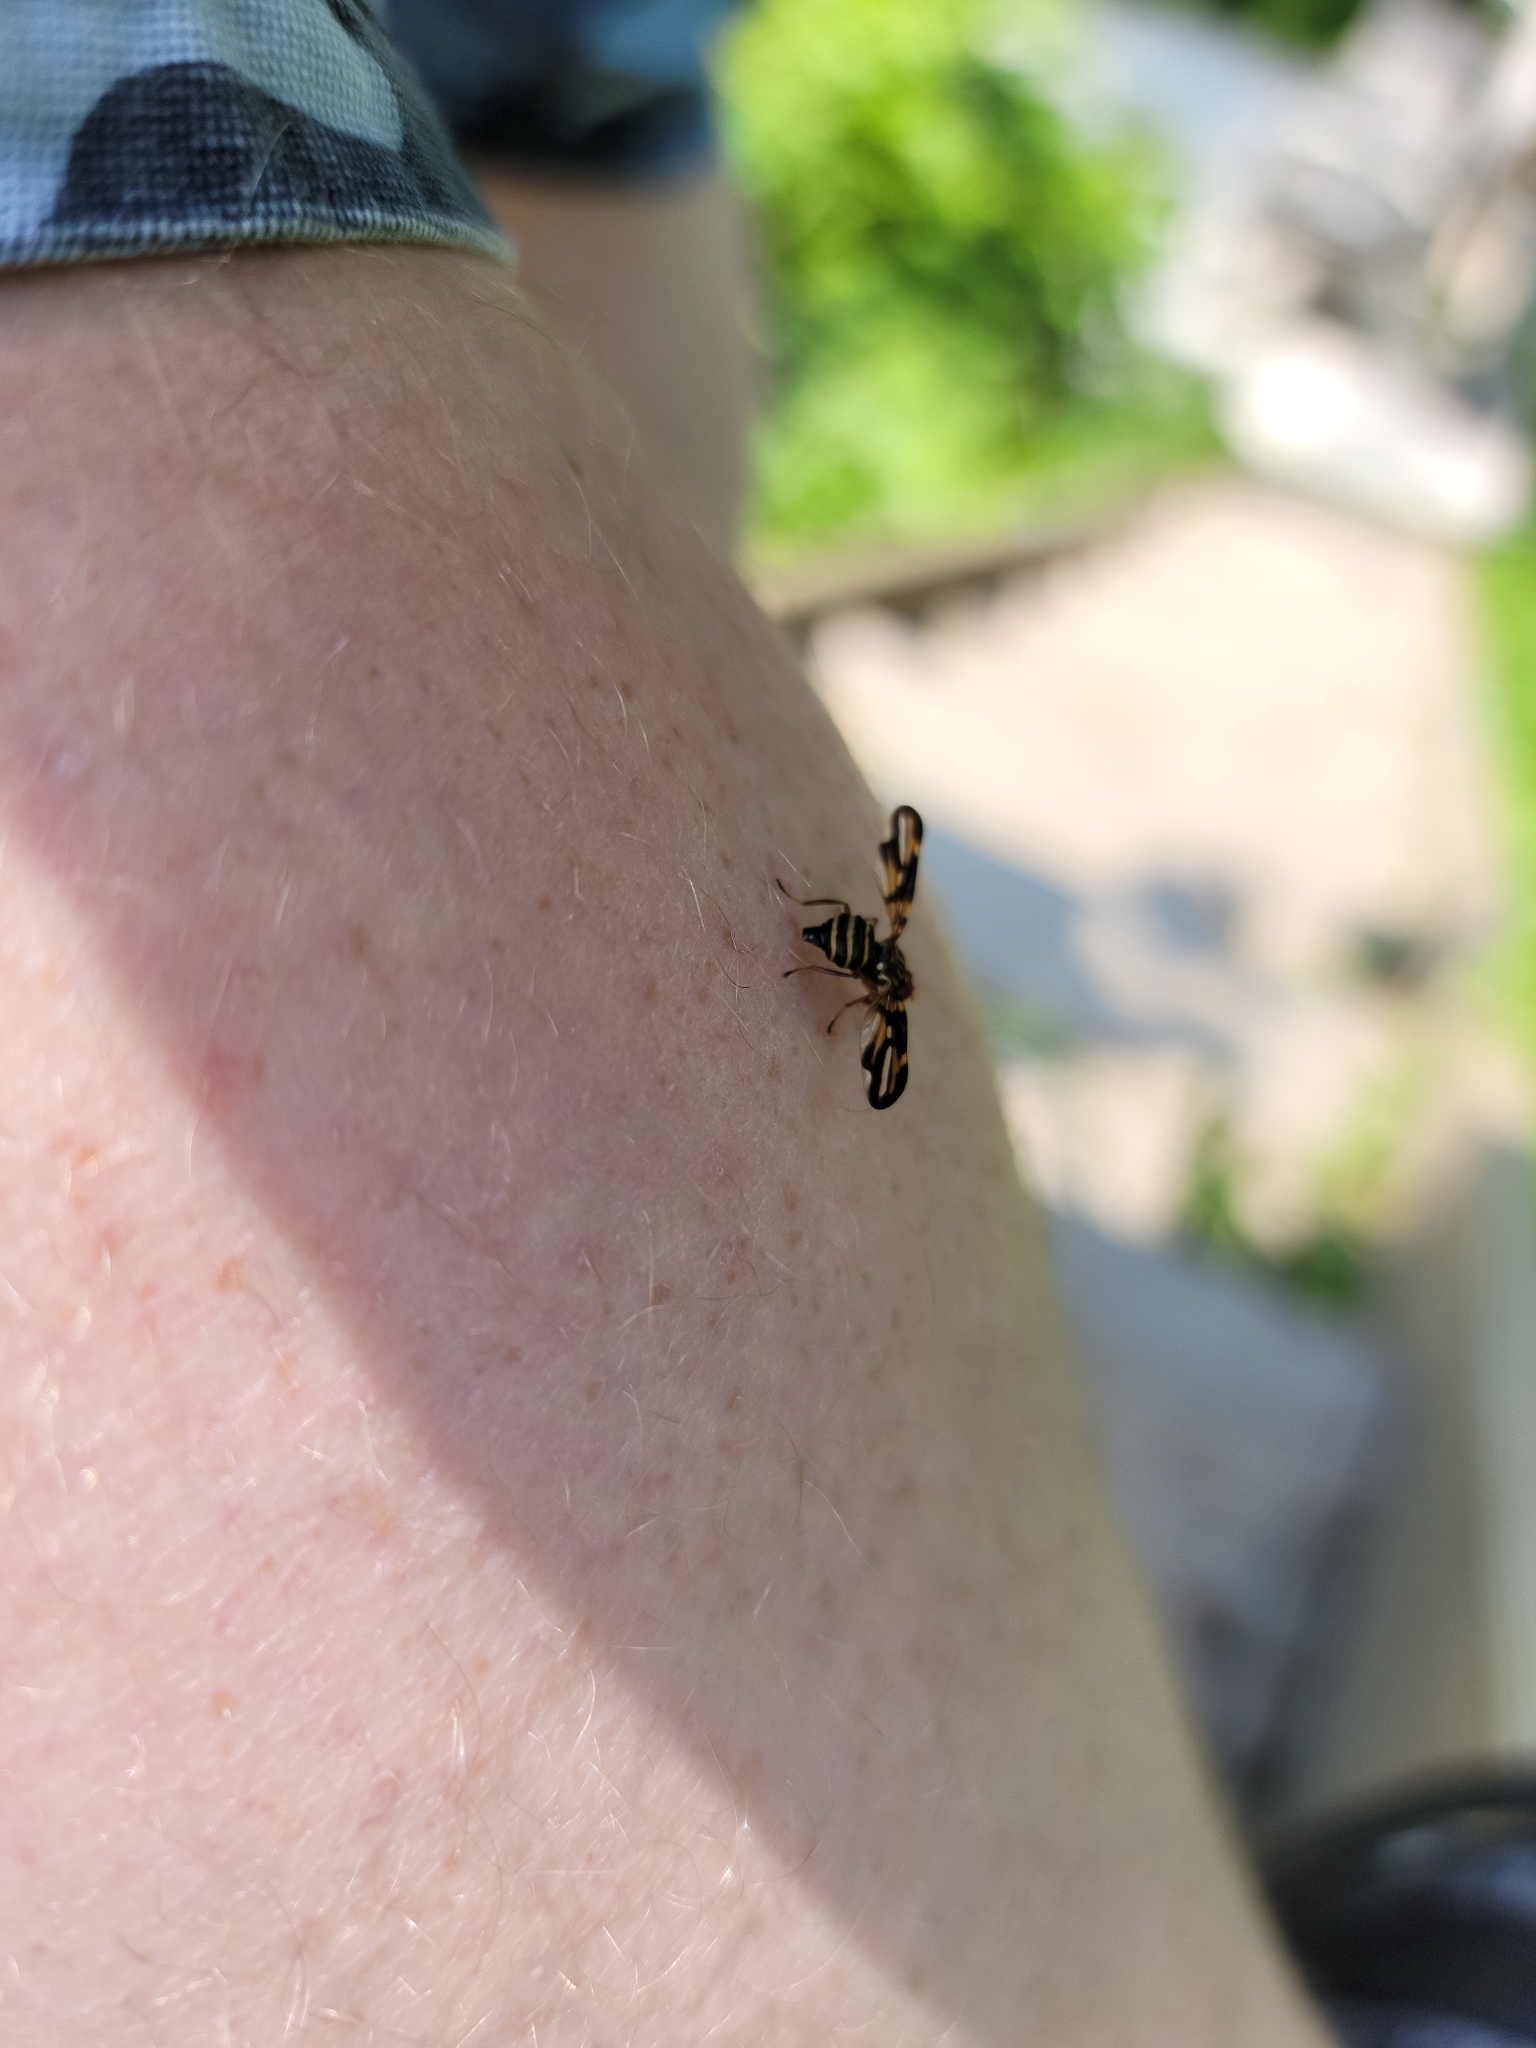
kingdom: Animalia
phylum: Arthropoda
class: Insecta
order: Diptera
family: Ulidiidae
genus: Idana
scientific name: Idana marginata
